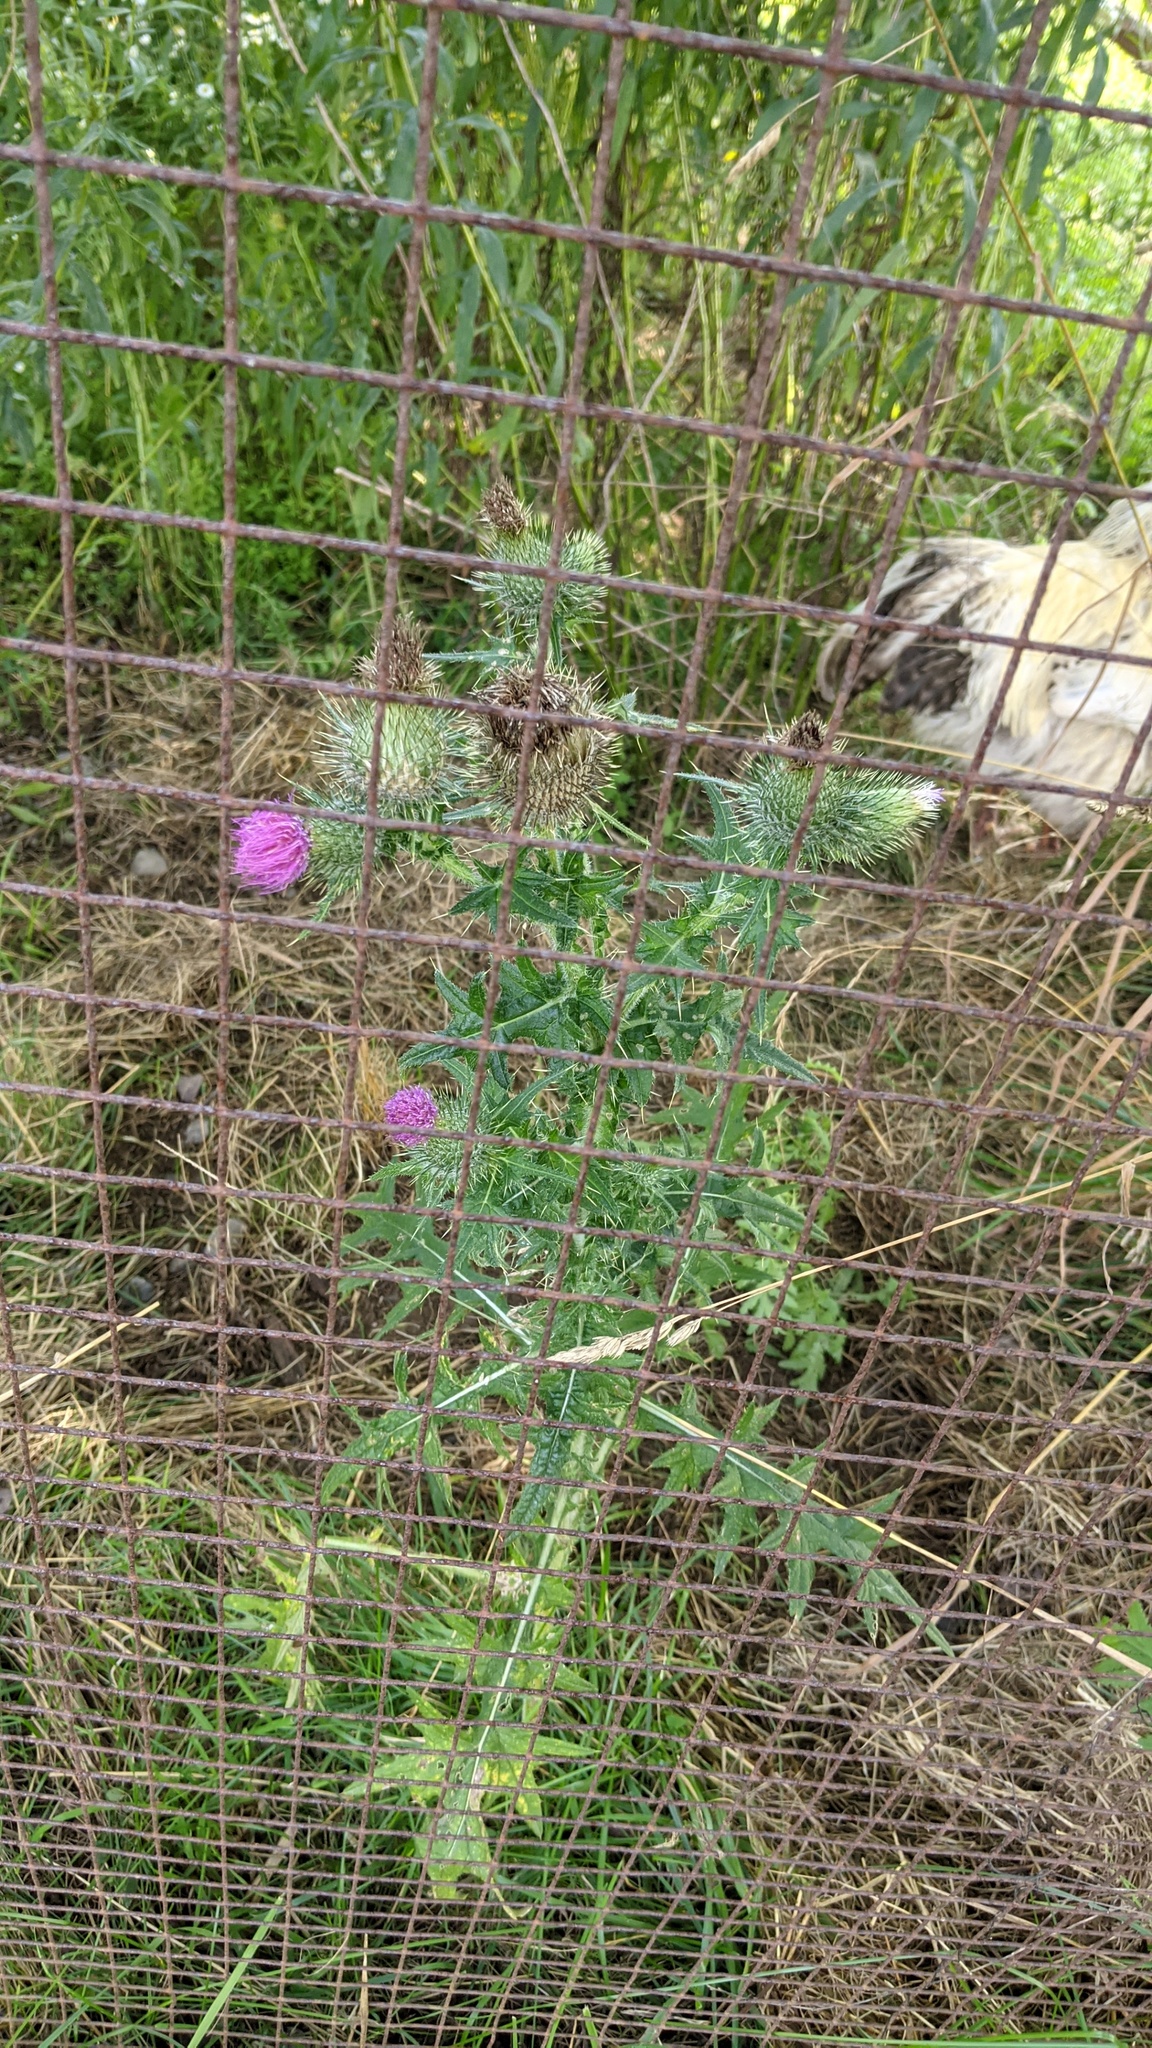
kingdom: Plantae
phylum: Tracheophyta
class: Magnoliopsida
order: Asterales
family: Asteraceae
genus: Cirsium
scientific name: Cirsium vulgare
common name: Bull thistle
